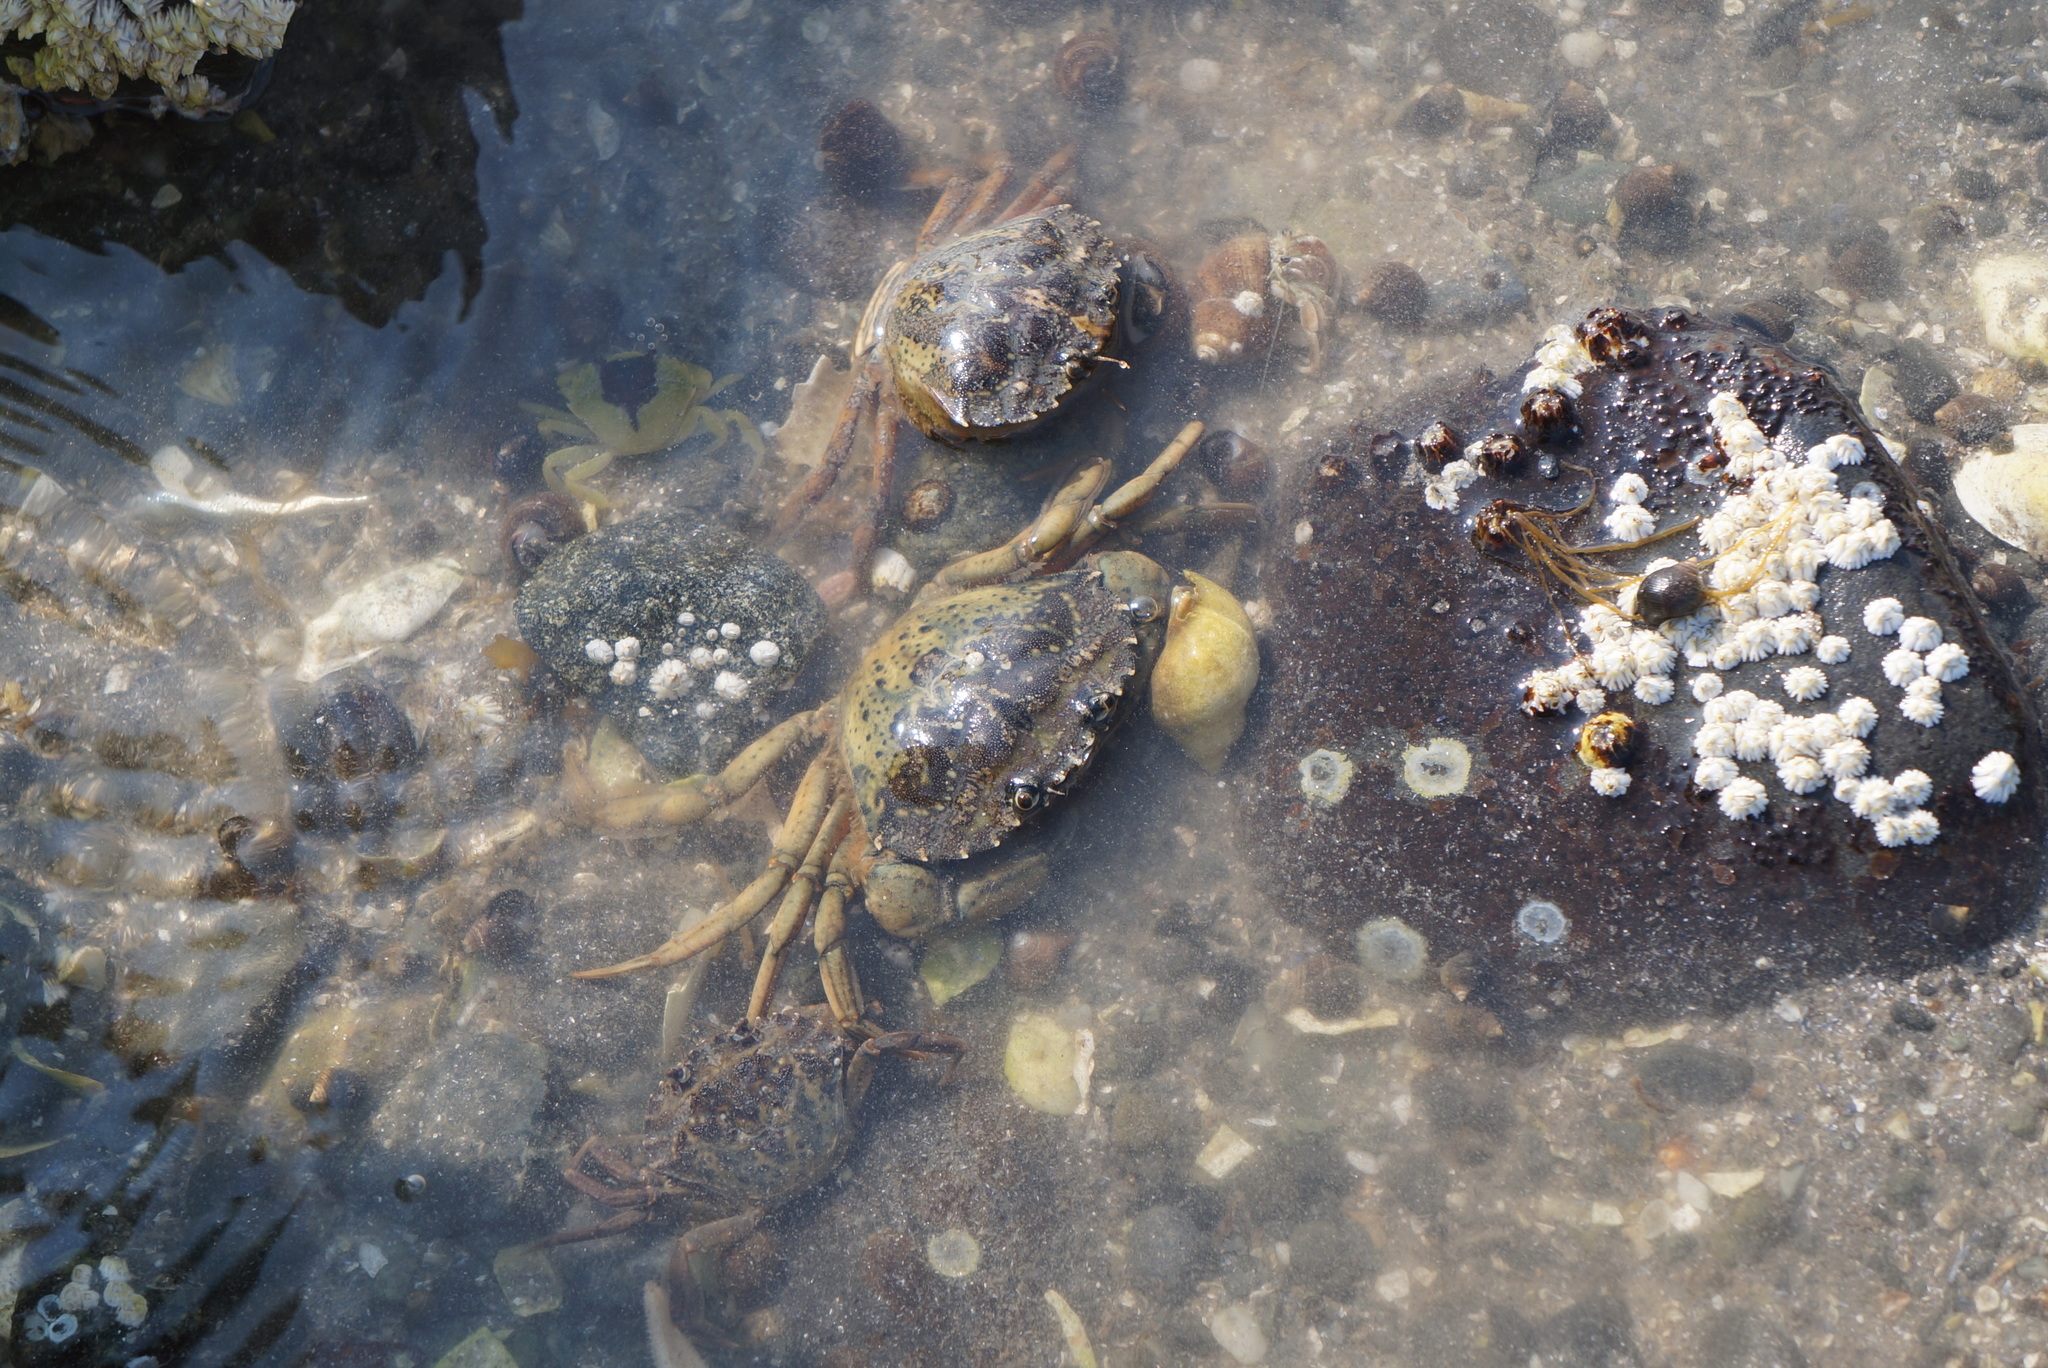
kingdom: Animalia
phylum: Arthropoda
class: Malacostraca
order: Decapoda
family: Carcinidae
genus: Carcinus
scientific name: Carcinus maenas
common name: European green crab
